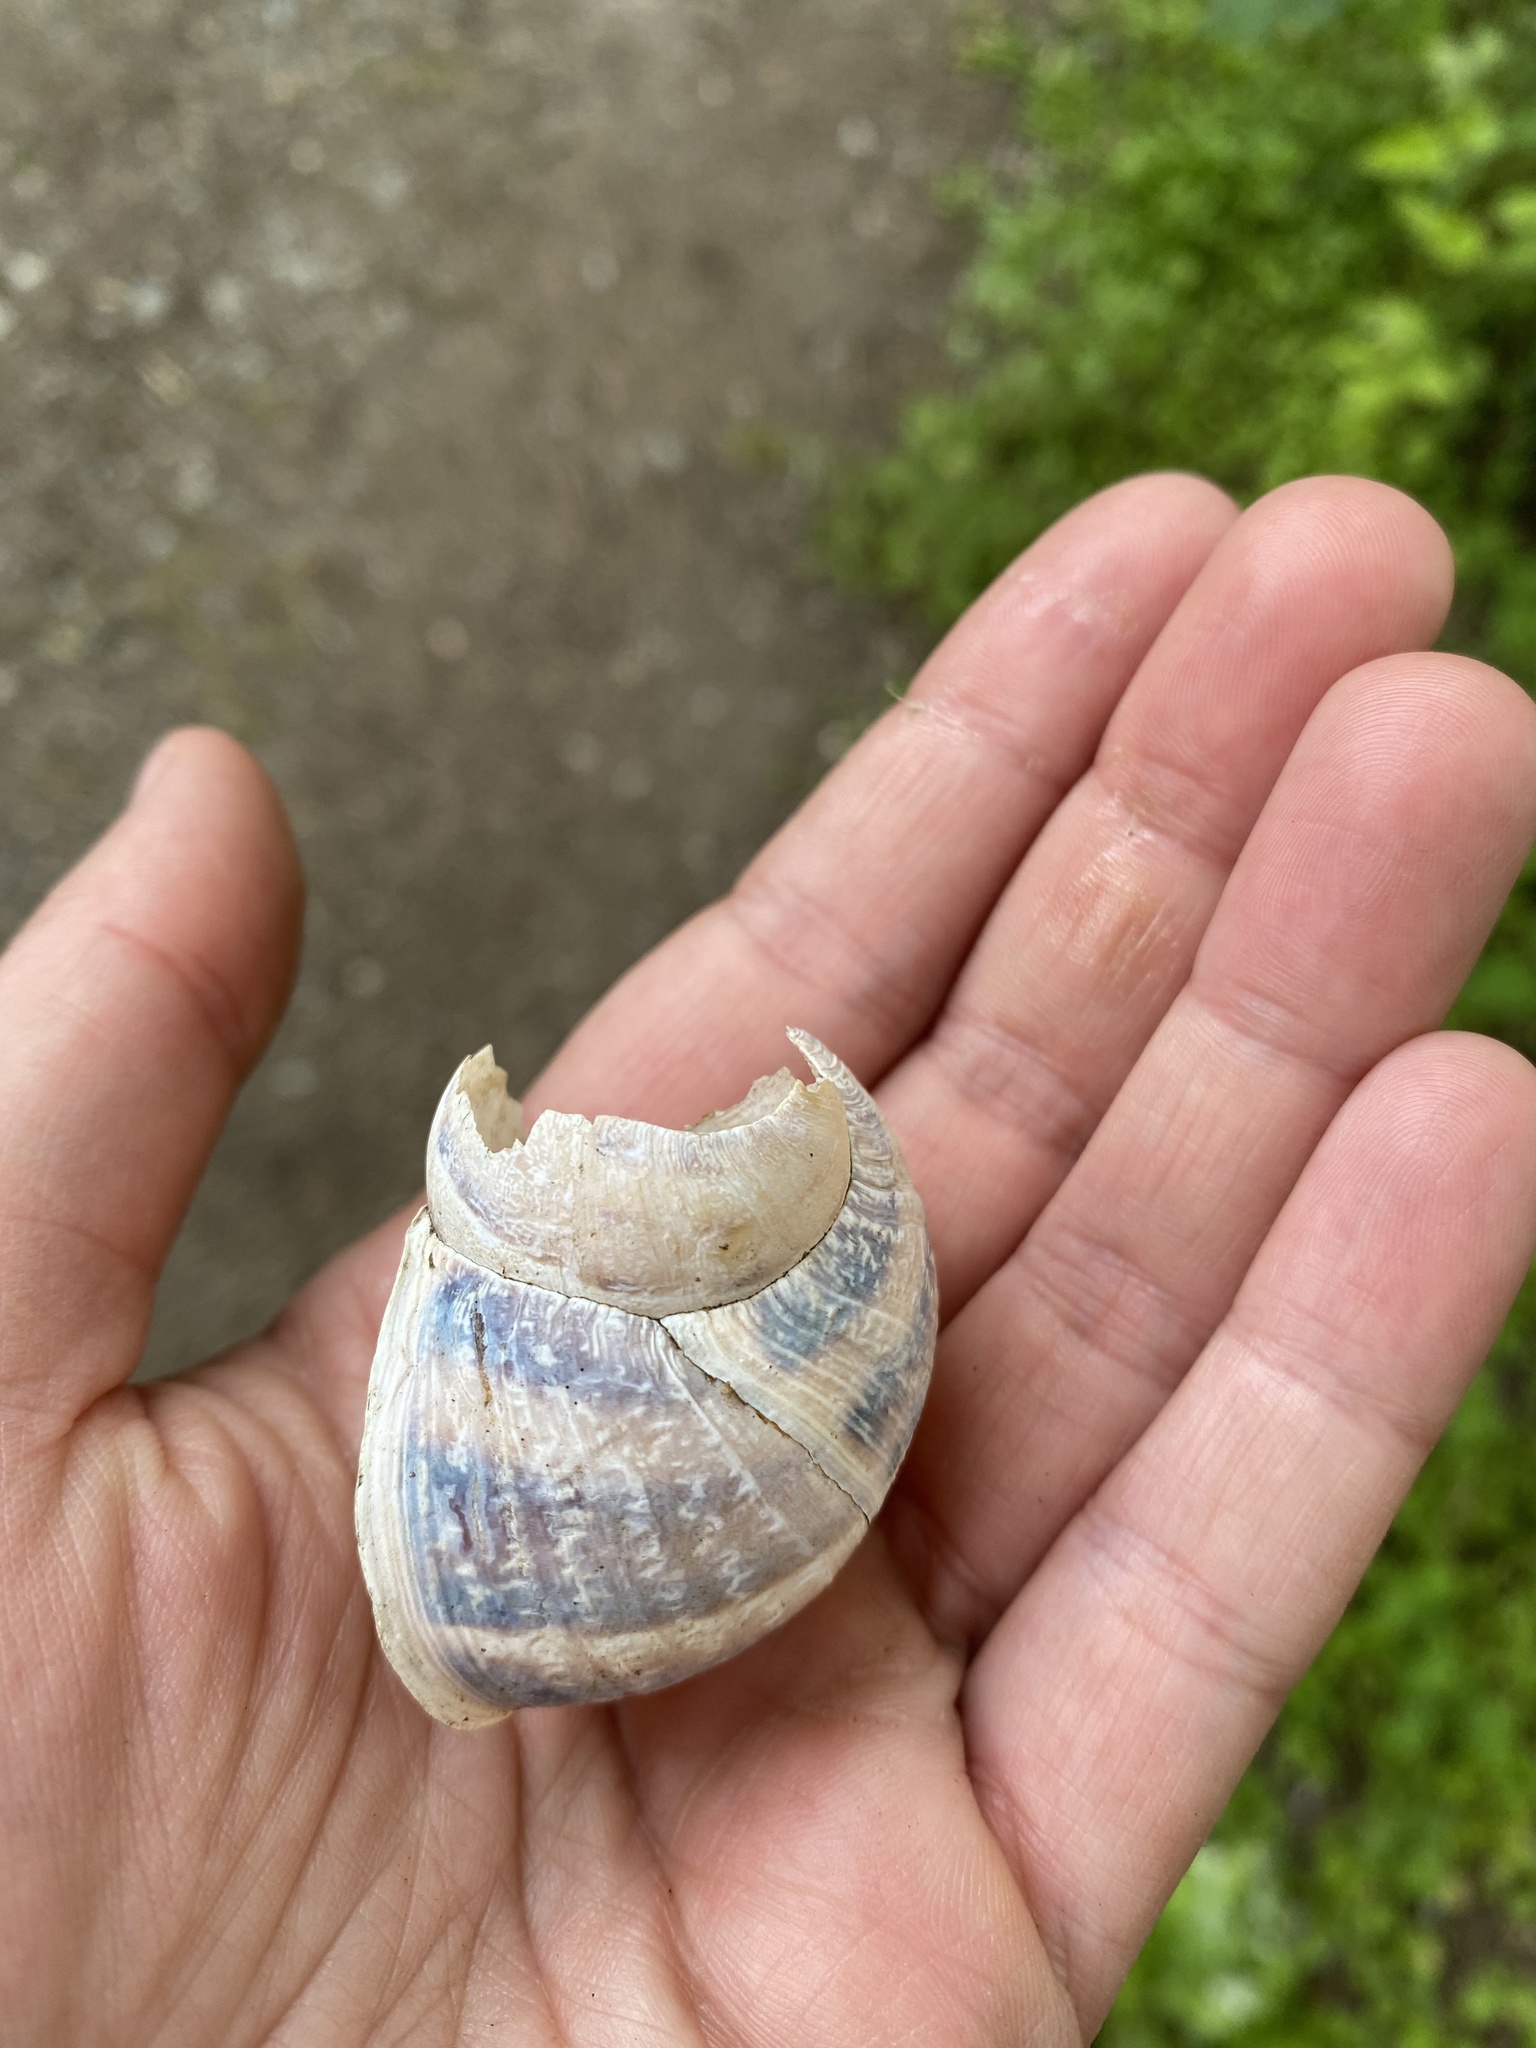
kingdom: Animalia
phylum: Mollusca
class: Gastropoda
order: Stylommatophora
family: Helicidae
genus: Cornu
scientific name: Cornu aspersum
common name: Brown garden snail
